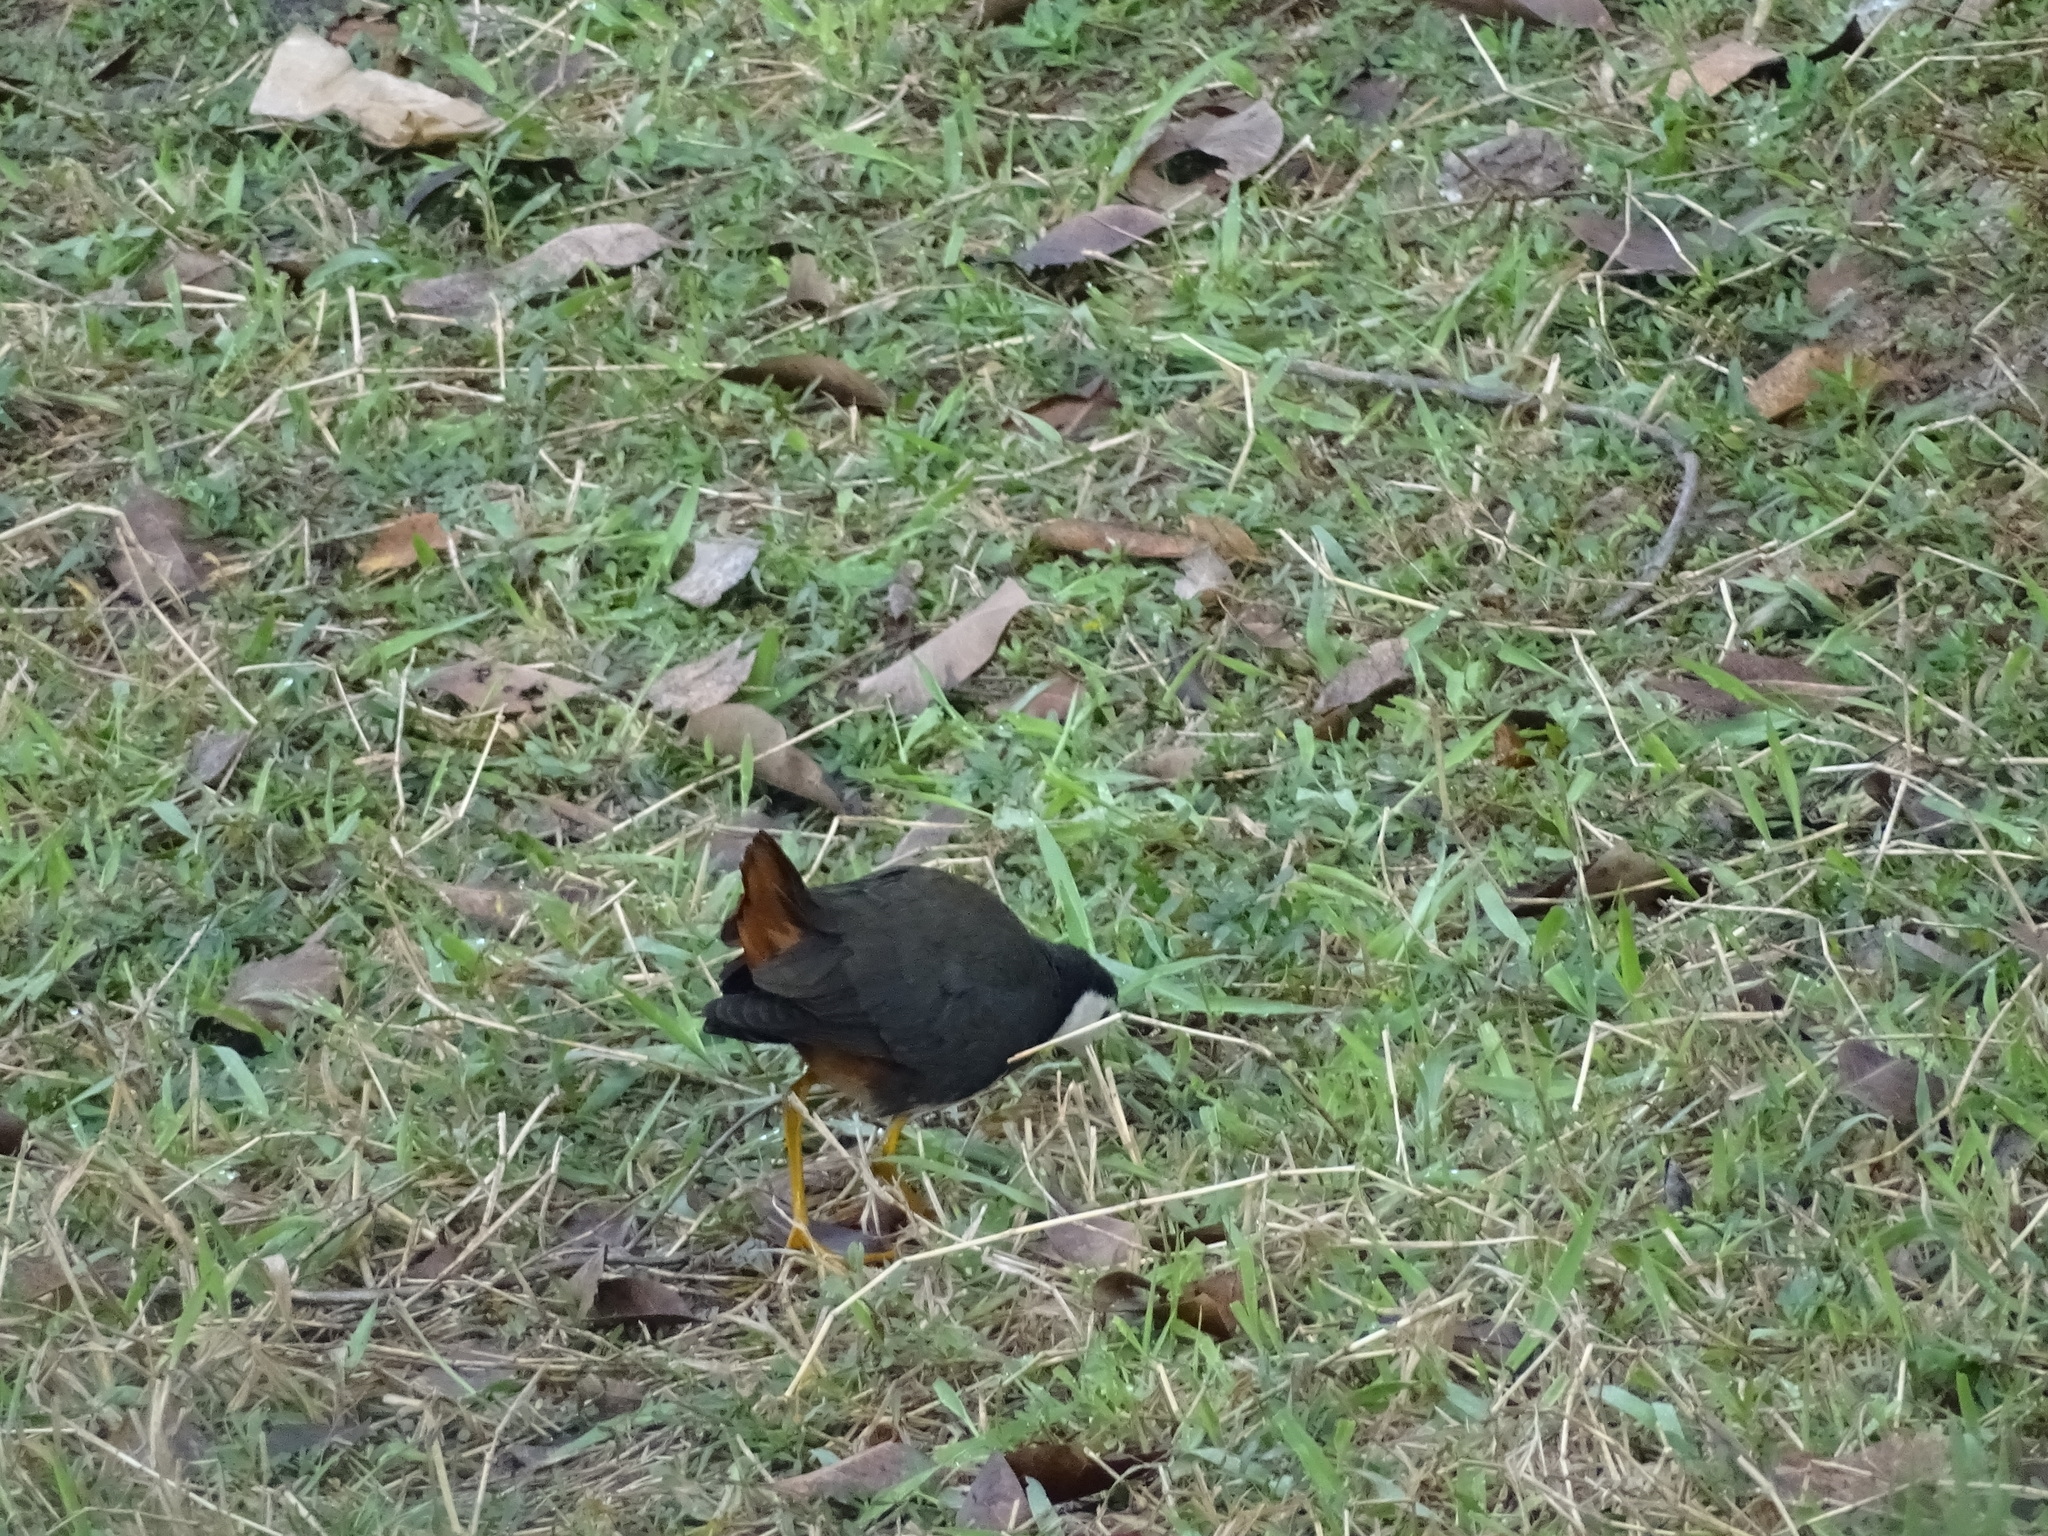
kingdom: Animalia
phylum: Chordata
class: Aves
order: Gruiformes
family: Rallidae
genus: Amaurornis
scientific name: Amaurornis phoenicurus
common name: White-breasted waterhen
